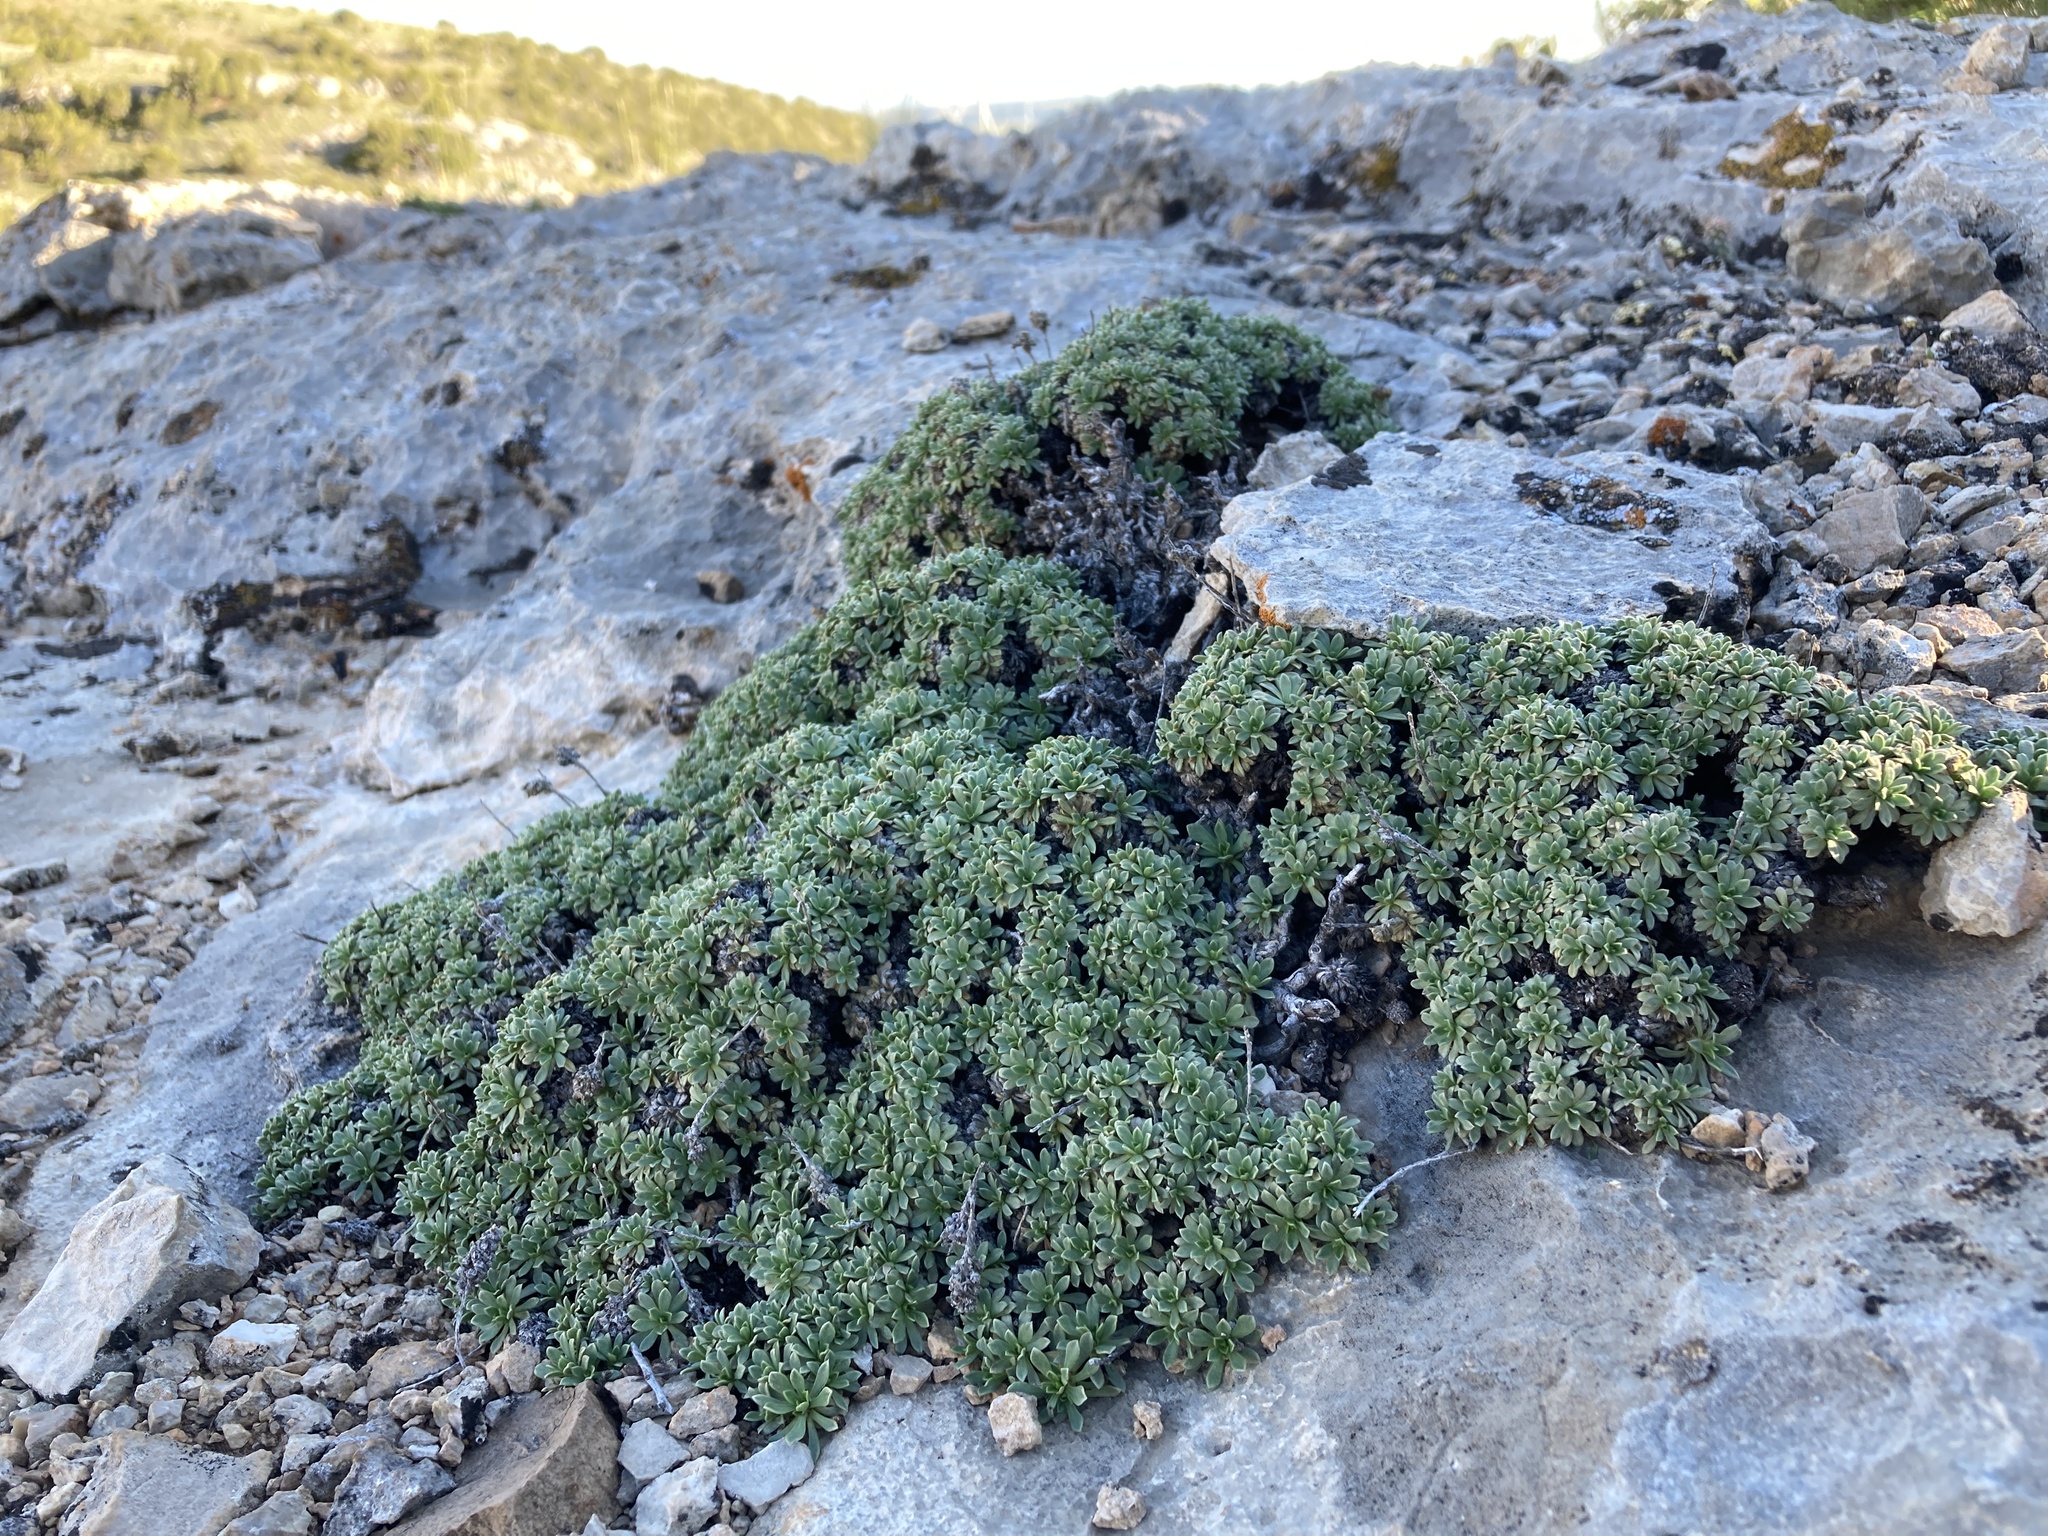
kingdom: Plantae
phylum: Tracheophyta
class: Magnoliopsida
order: Rosales
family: Rosaceae
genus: Petrophytum
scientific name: Petrophytum caespitosum
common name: Mat rockspirea
